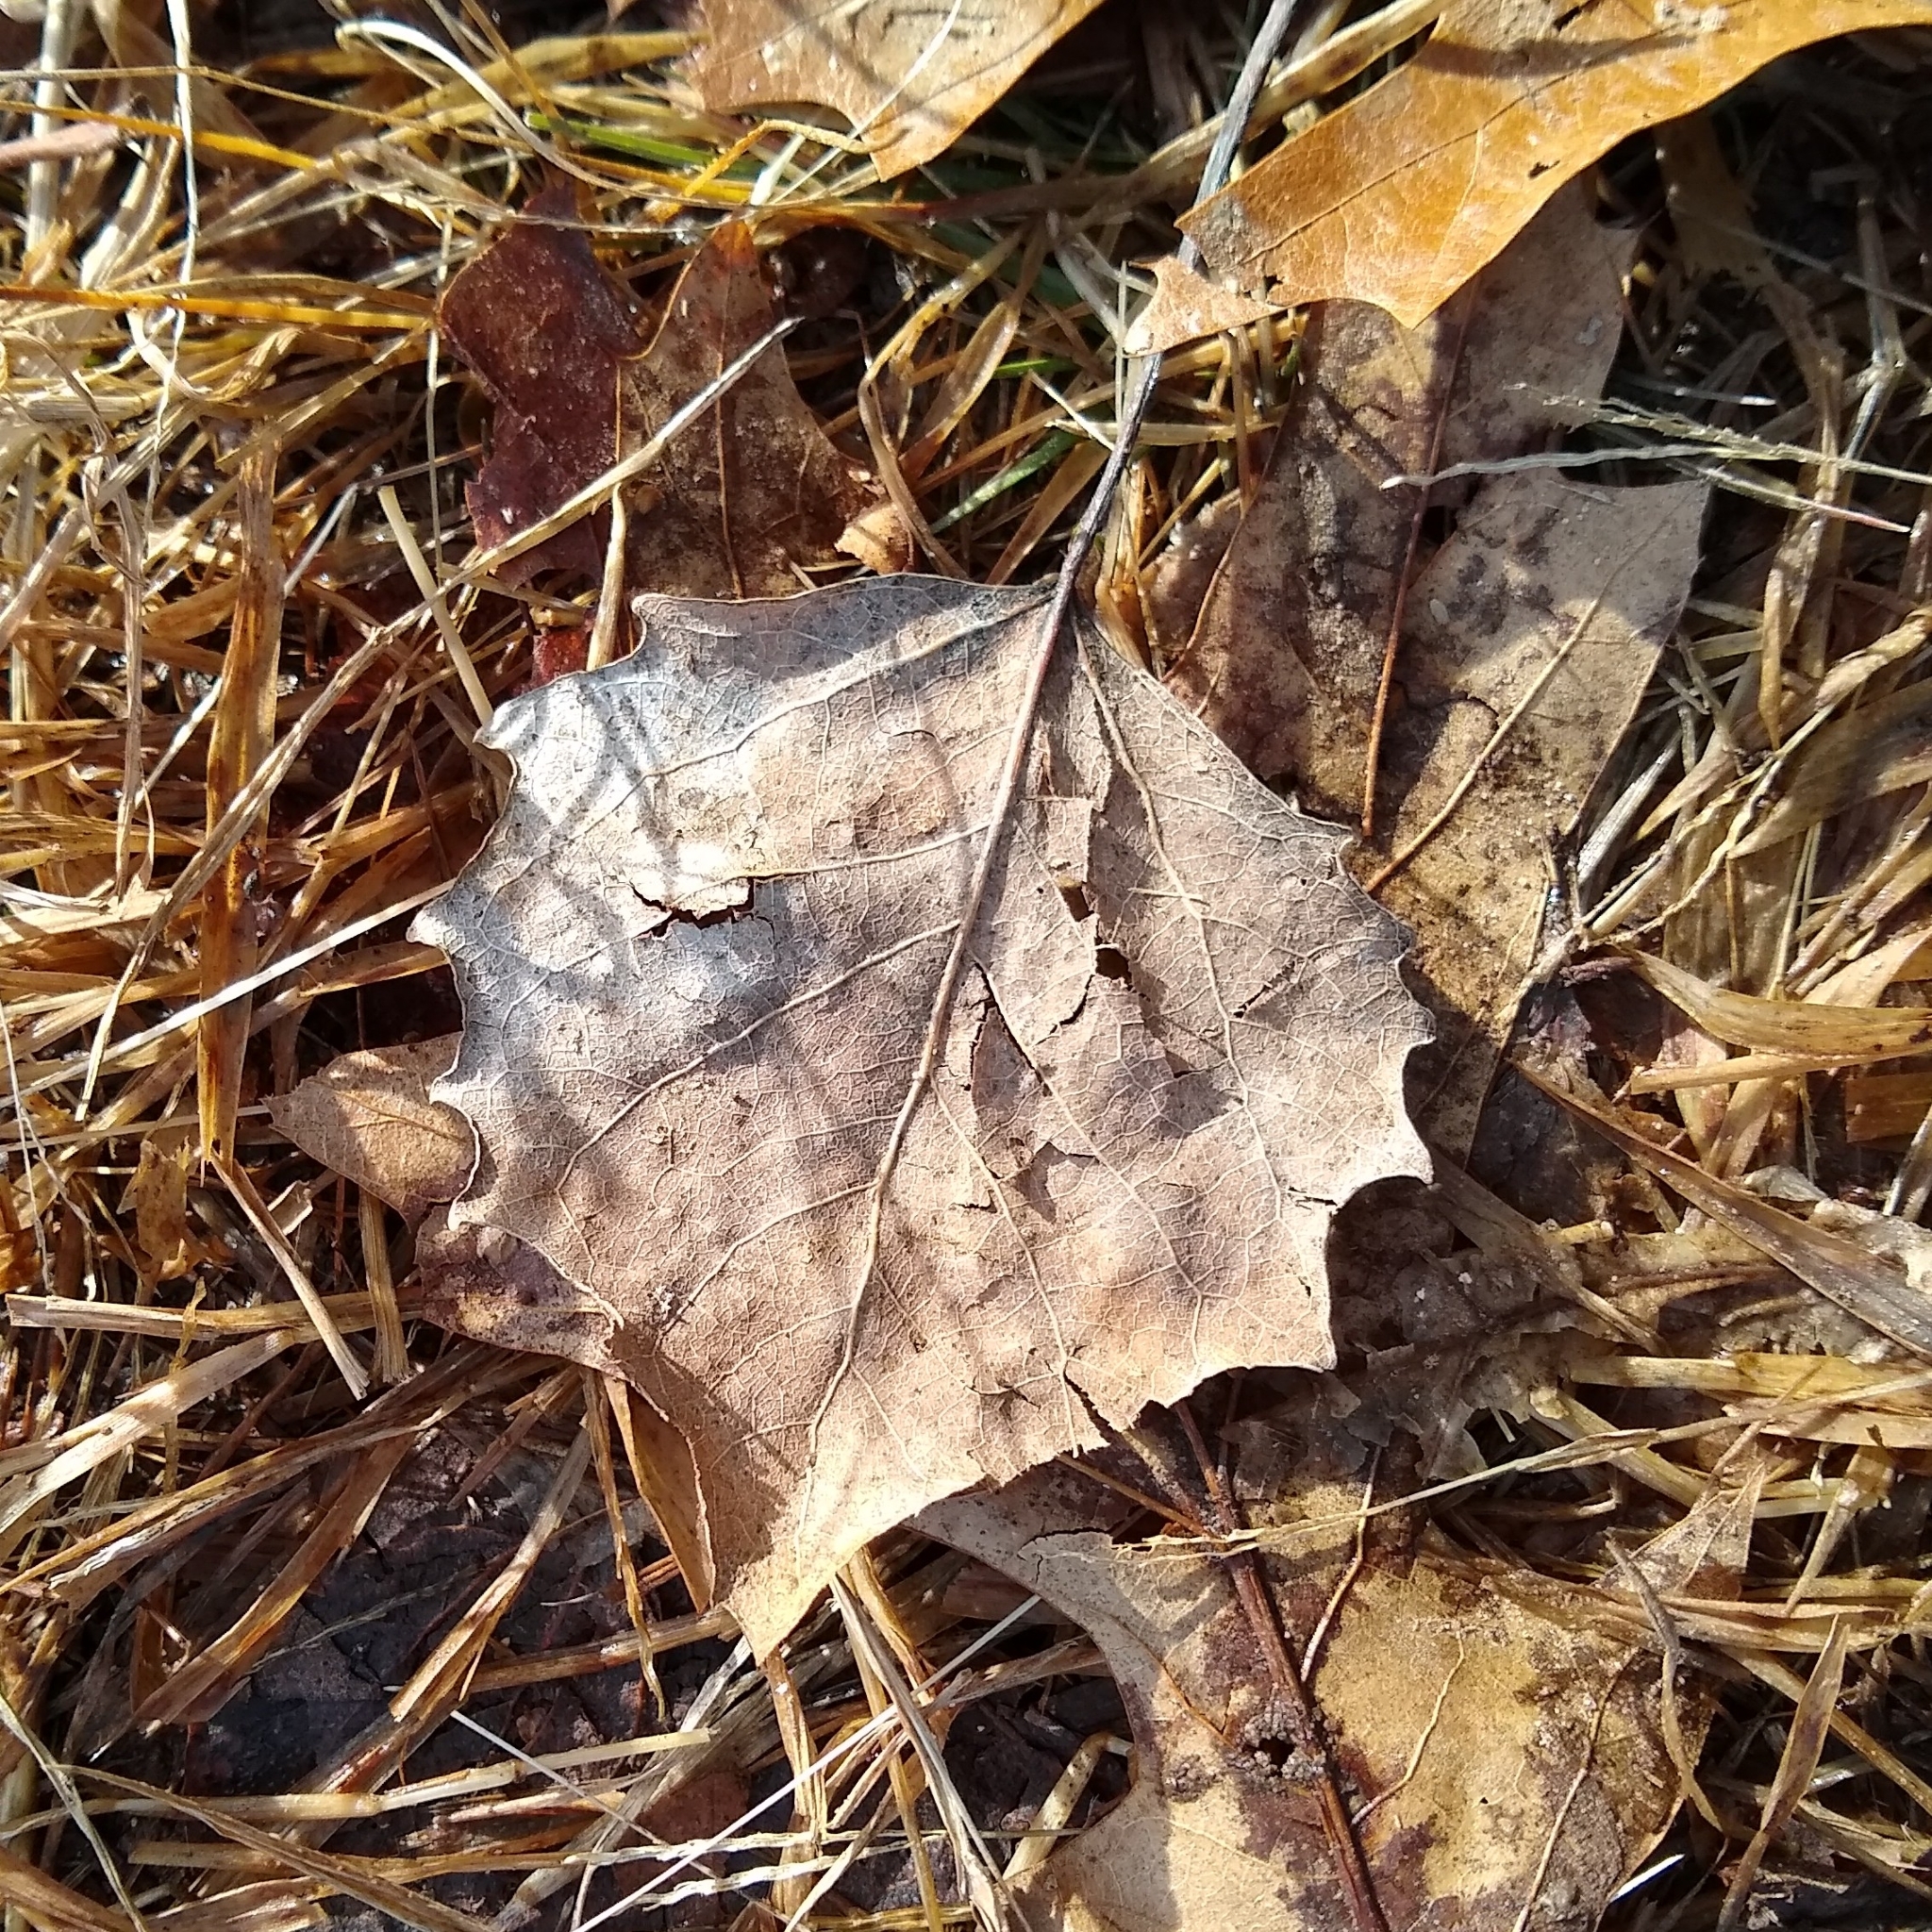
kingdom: Plantae
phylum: Tracheophyta
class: Magnoliopsida
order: Malpighiales
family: Salicaceae
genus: Populus
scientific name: Populus grandidentata
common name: Bigtooth aspen
